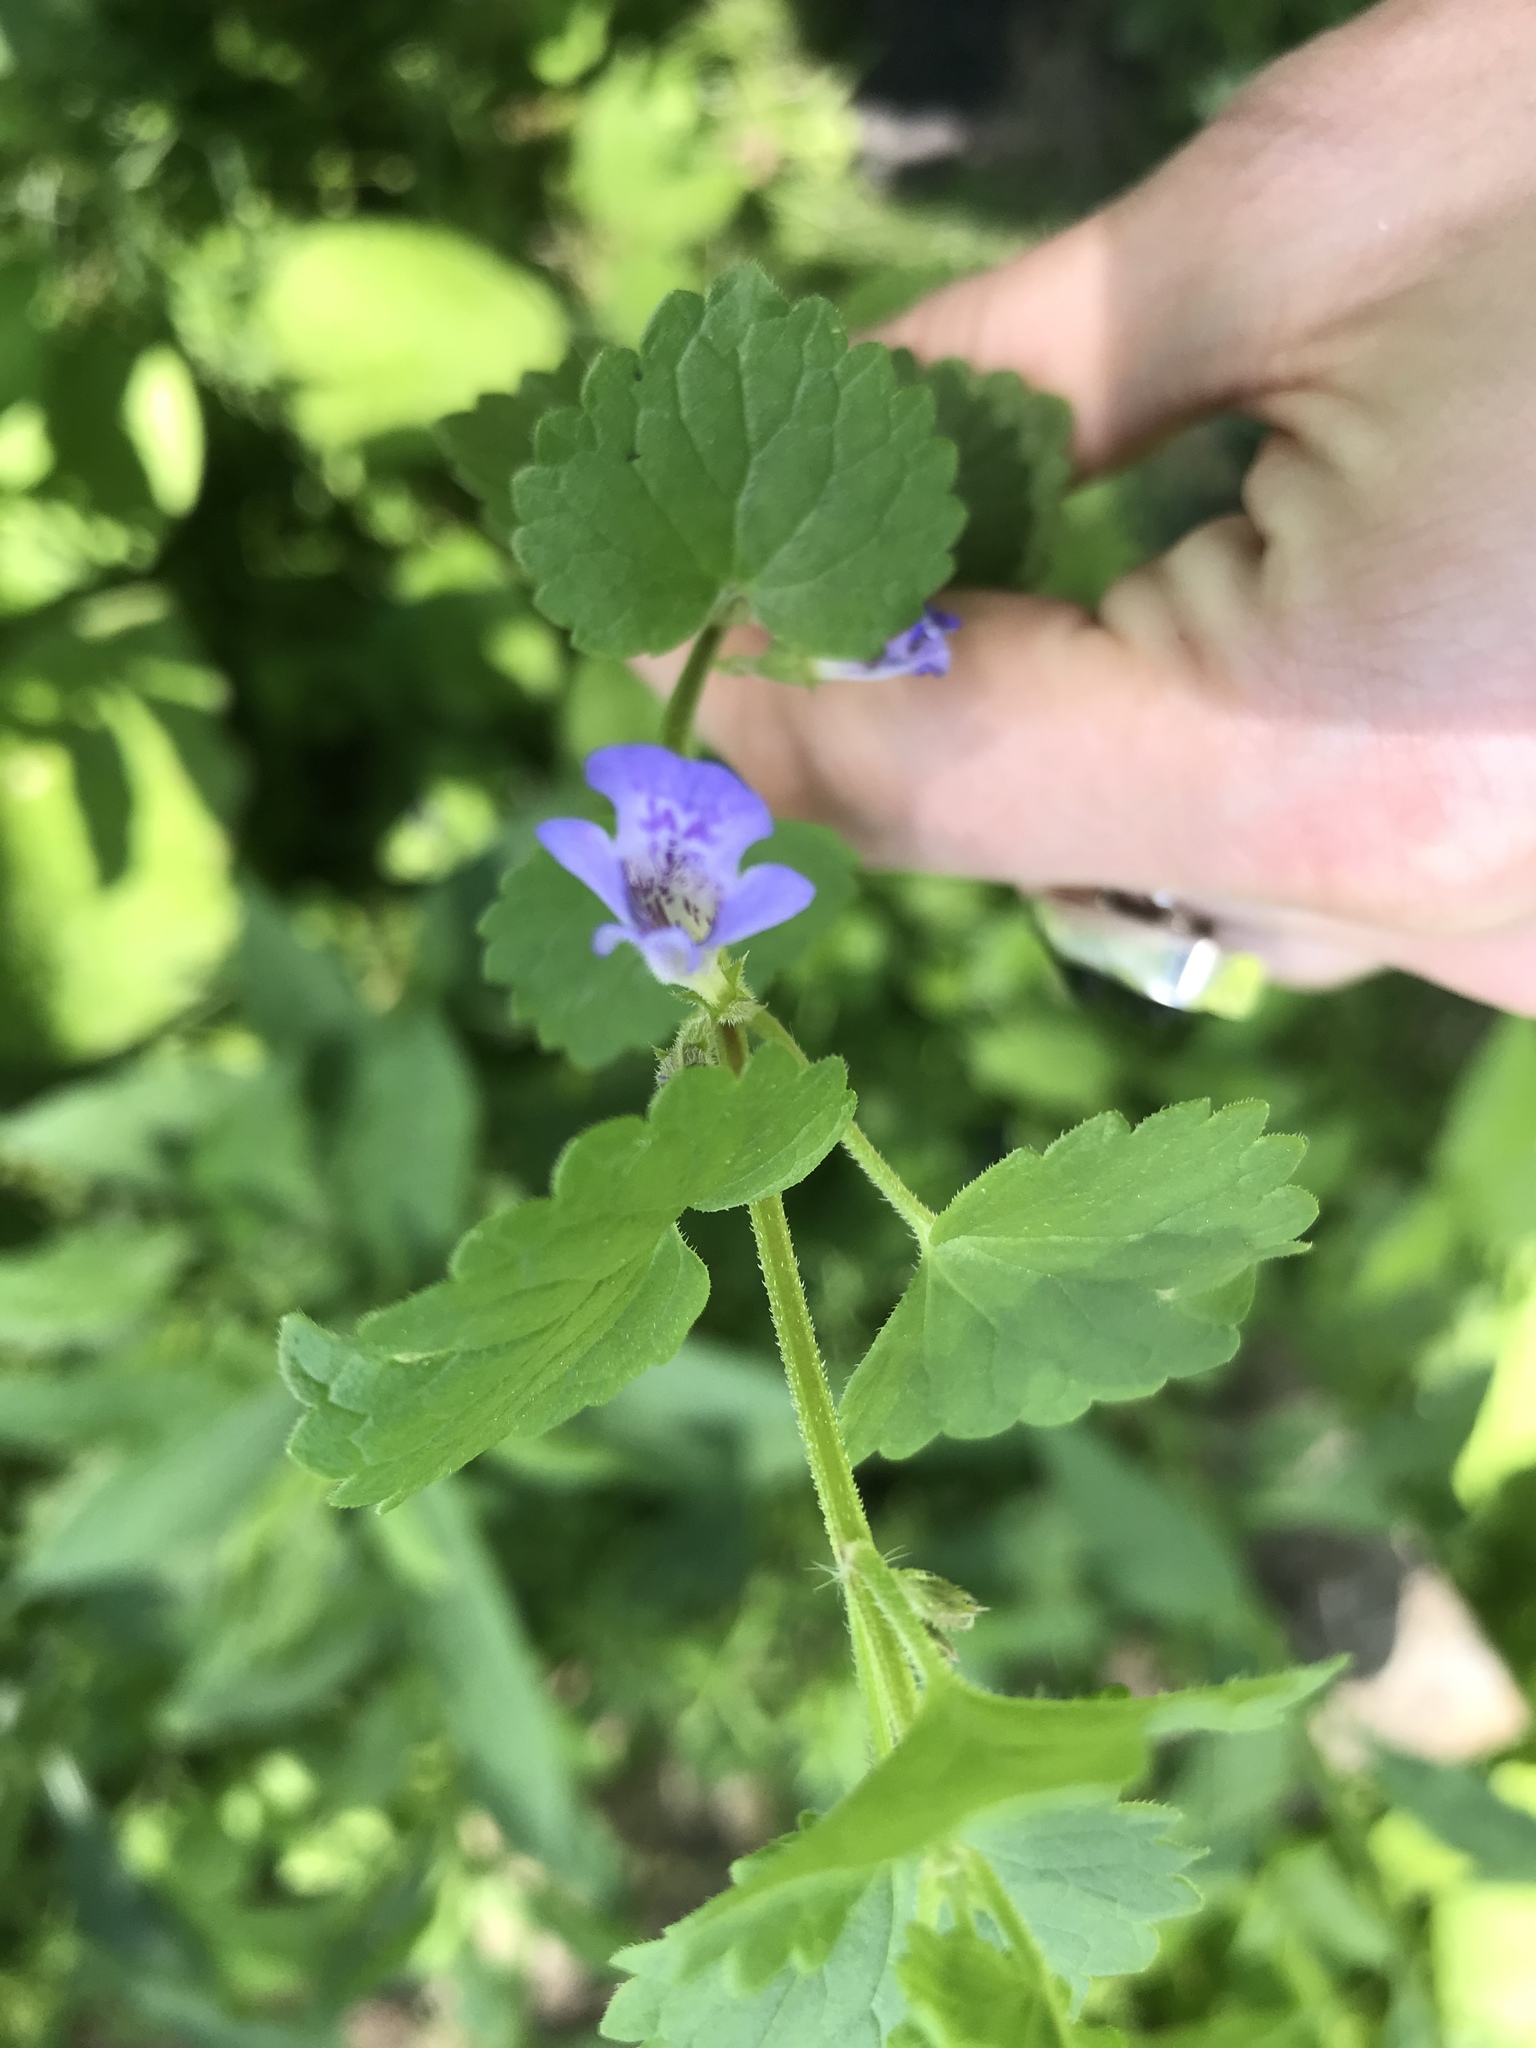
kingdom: Plantae
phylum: Tracheophyta
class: Magnoliopsida
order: Lamiales
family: Lamiaceae
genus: Glechoma
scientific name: Glechoma hederacea
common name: Ground ivy
